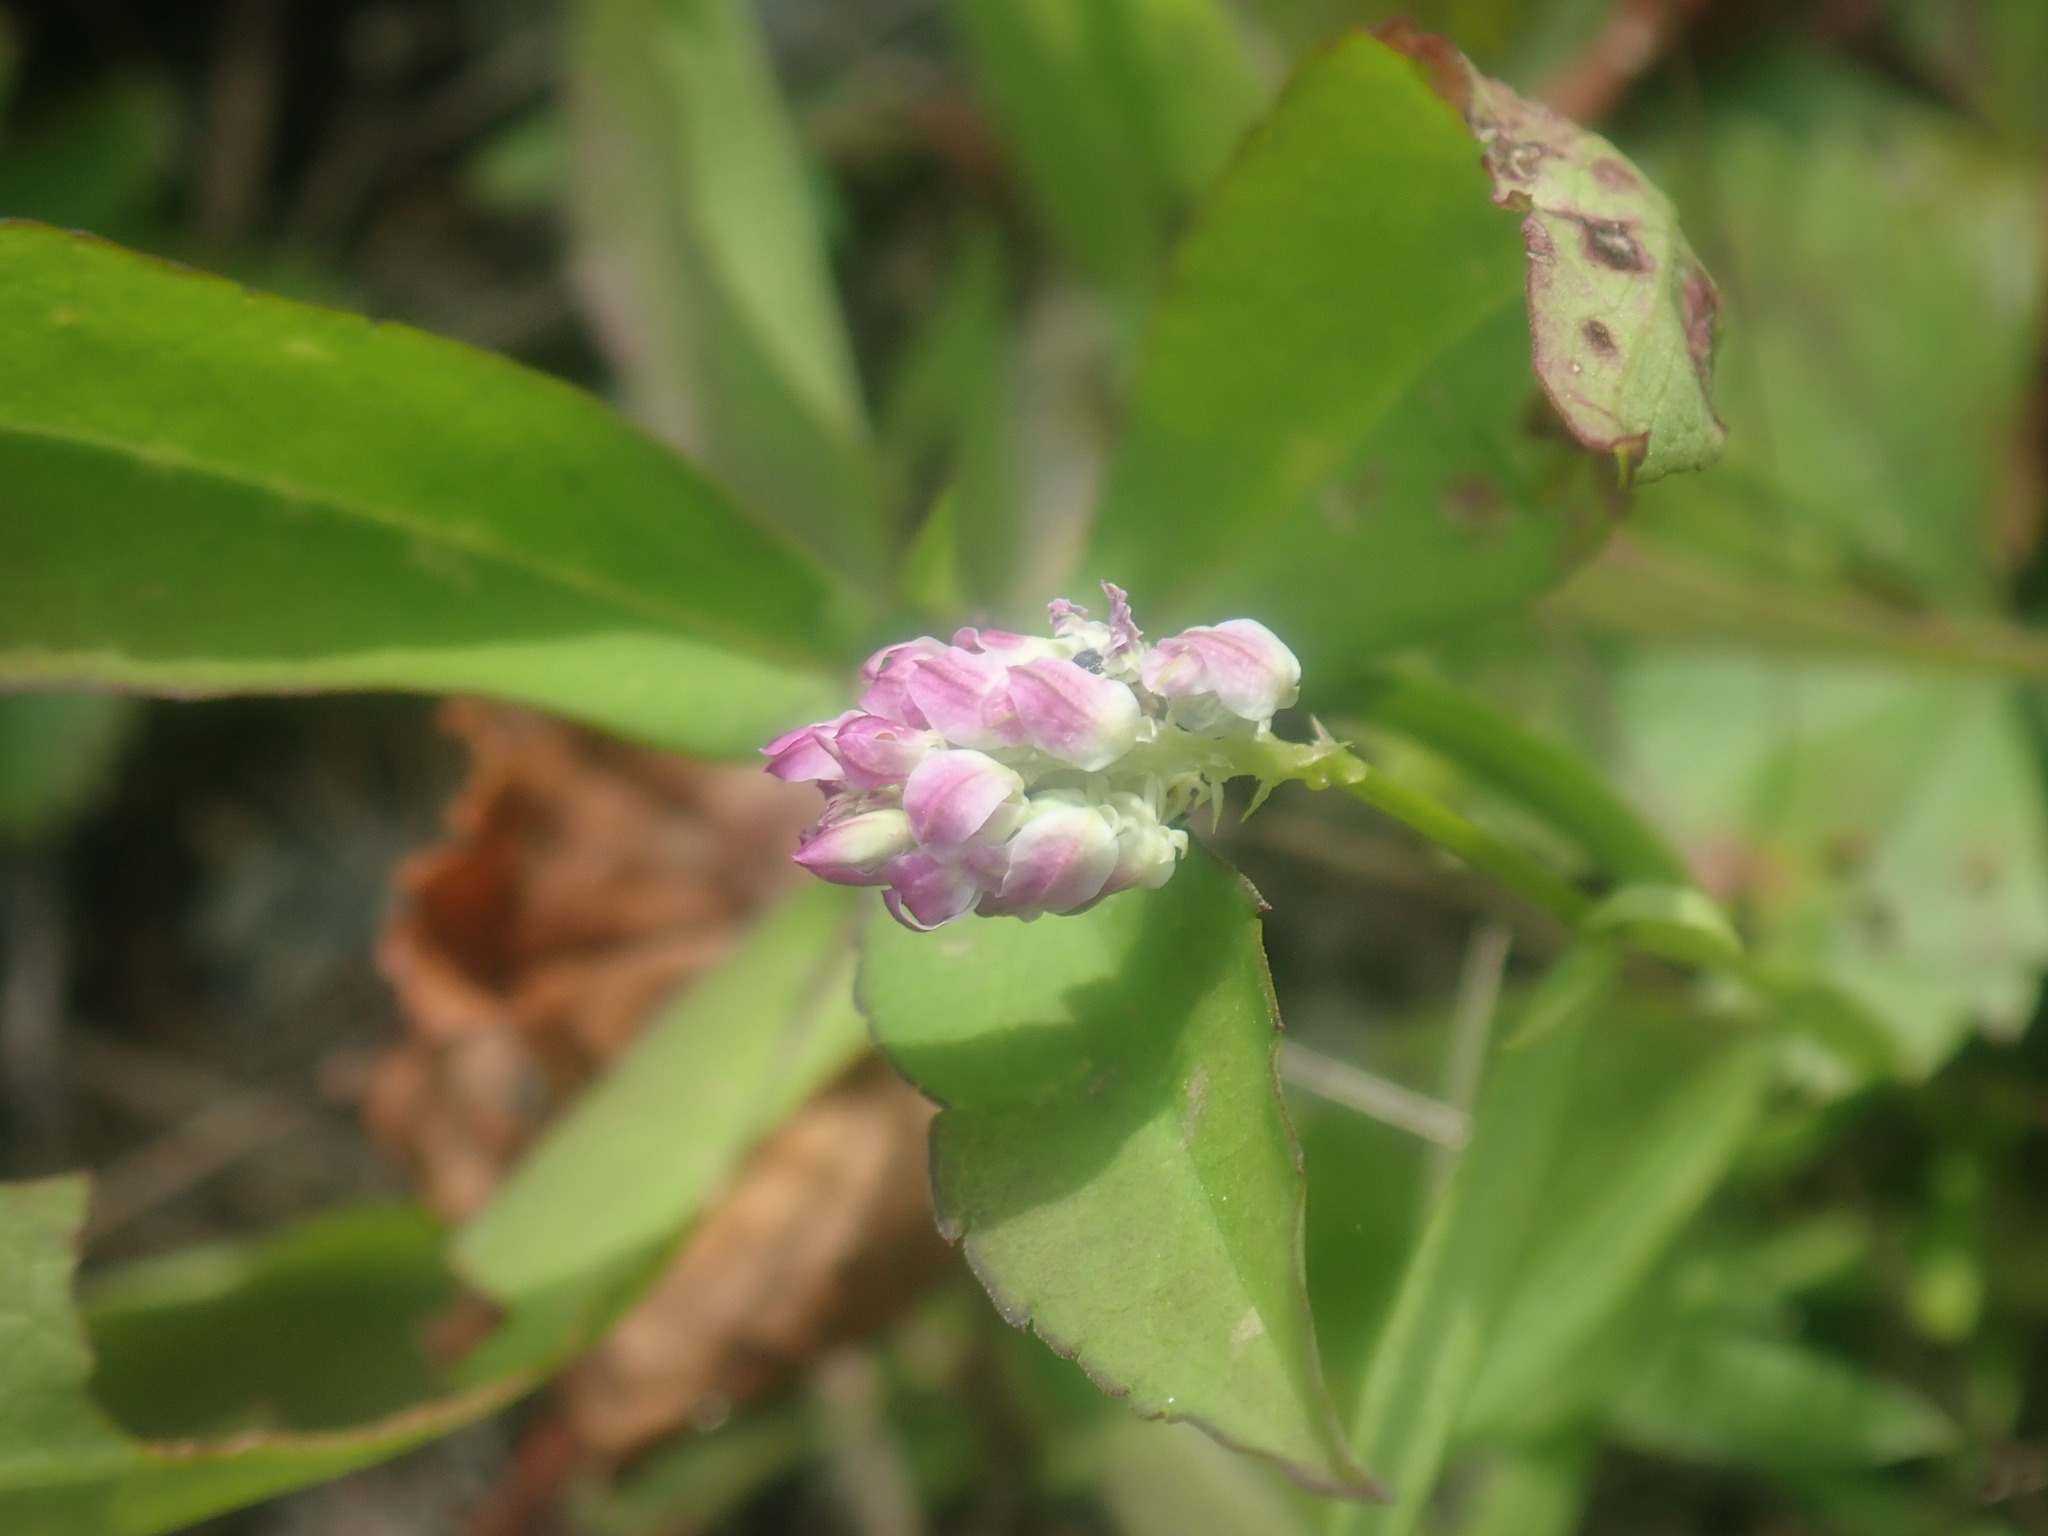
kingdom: Plantae
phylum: Tracheophyta
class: Magnoliopsida
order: Fabales
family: Polygalaceae
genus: Polygala
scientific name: Polygala sanguinea
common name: Blood milkwort
